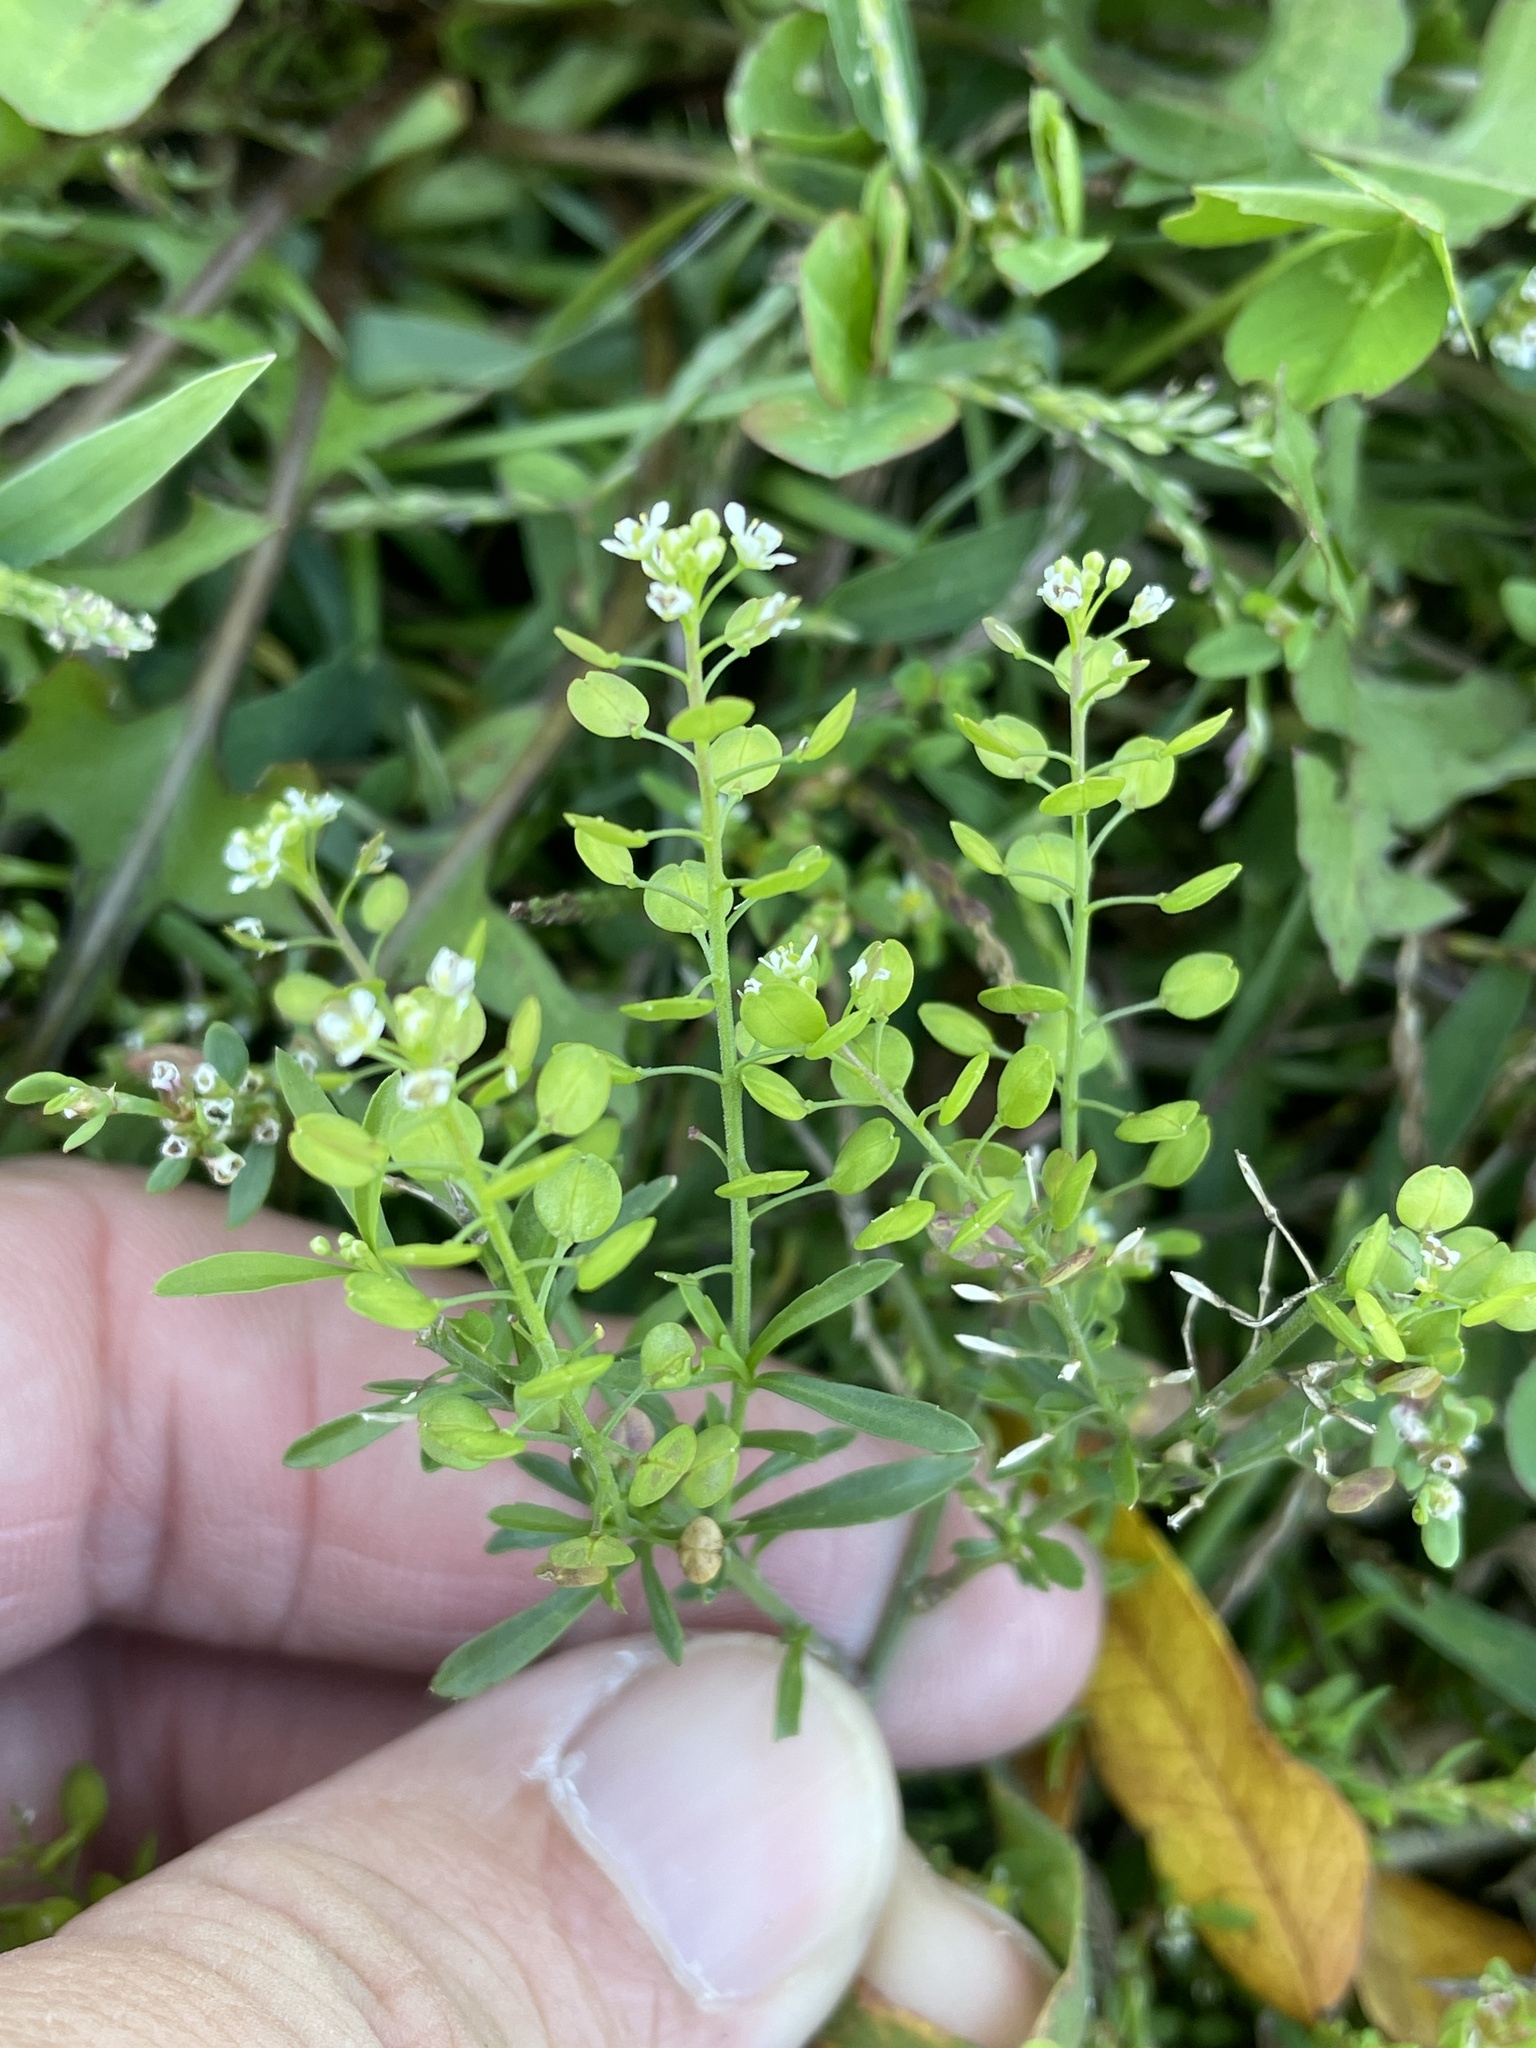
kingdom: Plantae
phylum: Tracheophyta
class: Magnoliopsida
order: Brassicales
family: Brassicaceae
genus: Lepidium
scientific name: Lepidium virginicum
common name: Least pepperwort
